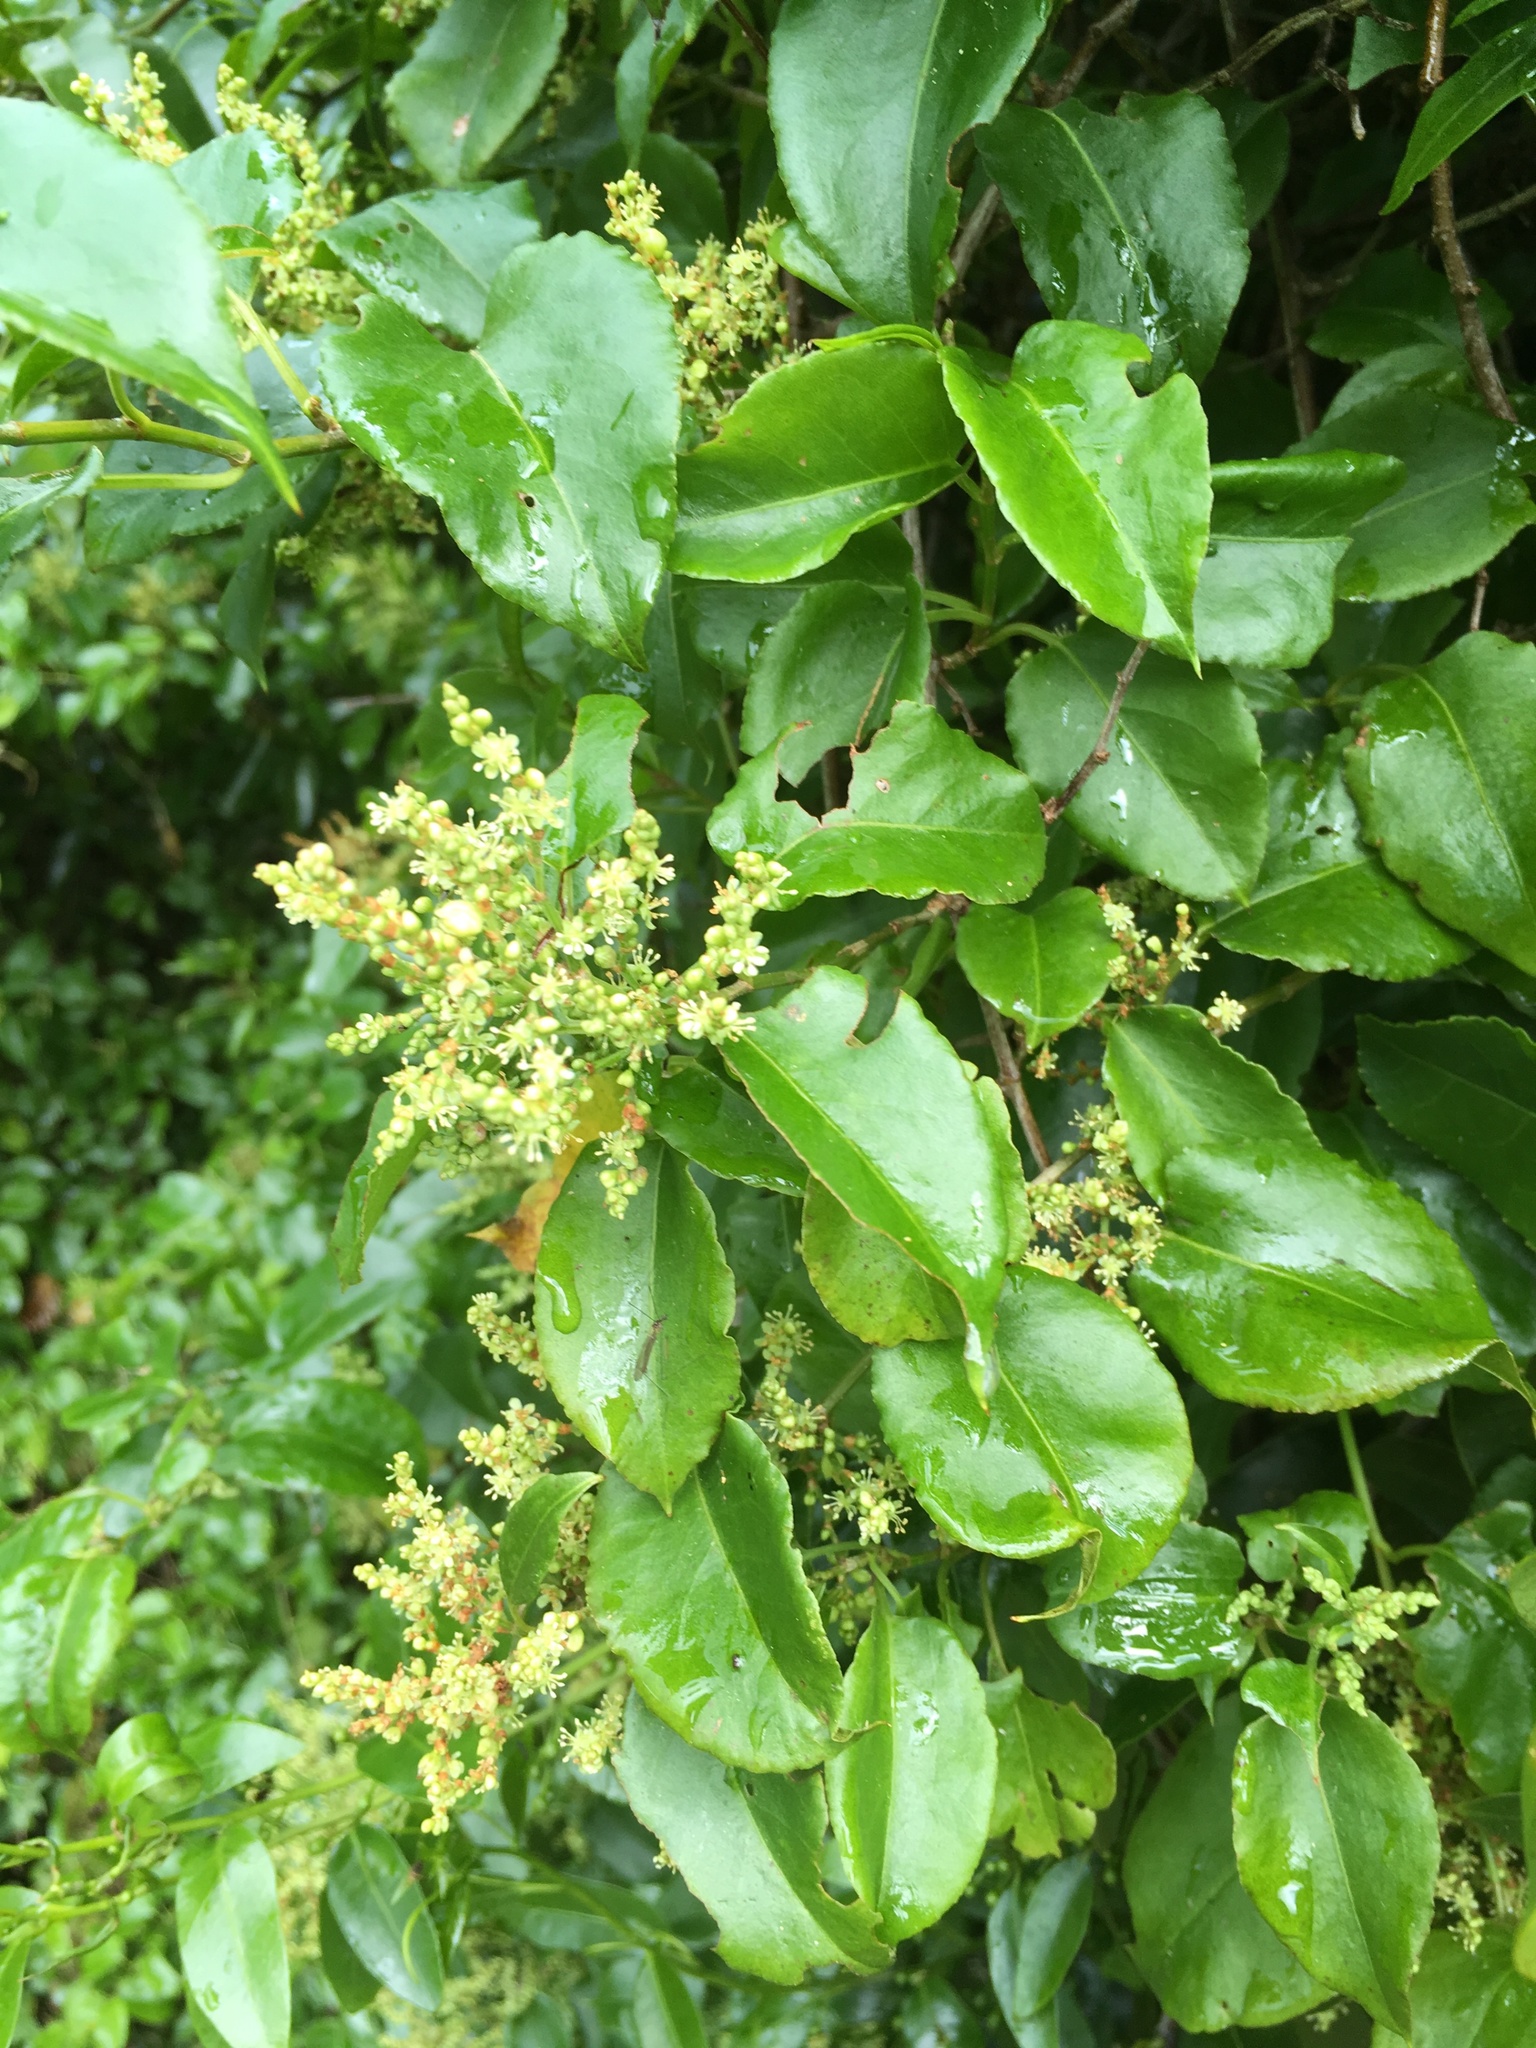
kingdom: Plantae
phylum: Tracheophyta
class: Magnoliopsida
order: Caryophyllales
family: Polygonaceae
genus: Muehlenbeckia
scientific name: Muehlenbeckia australis
